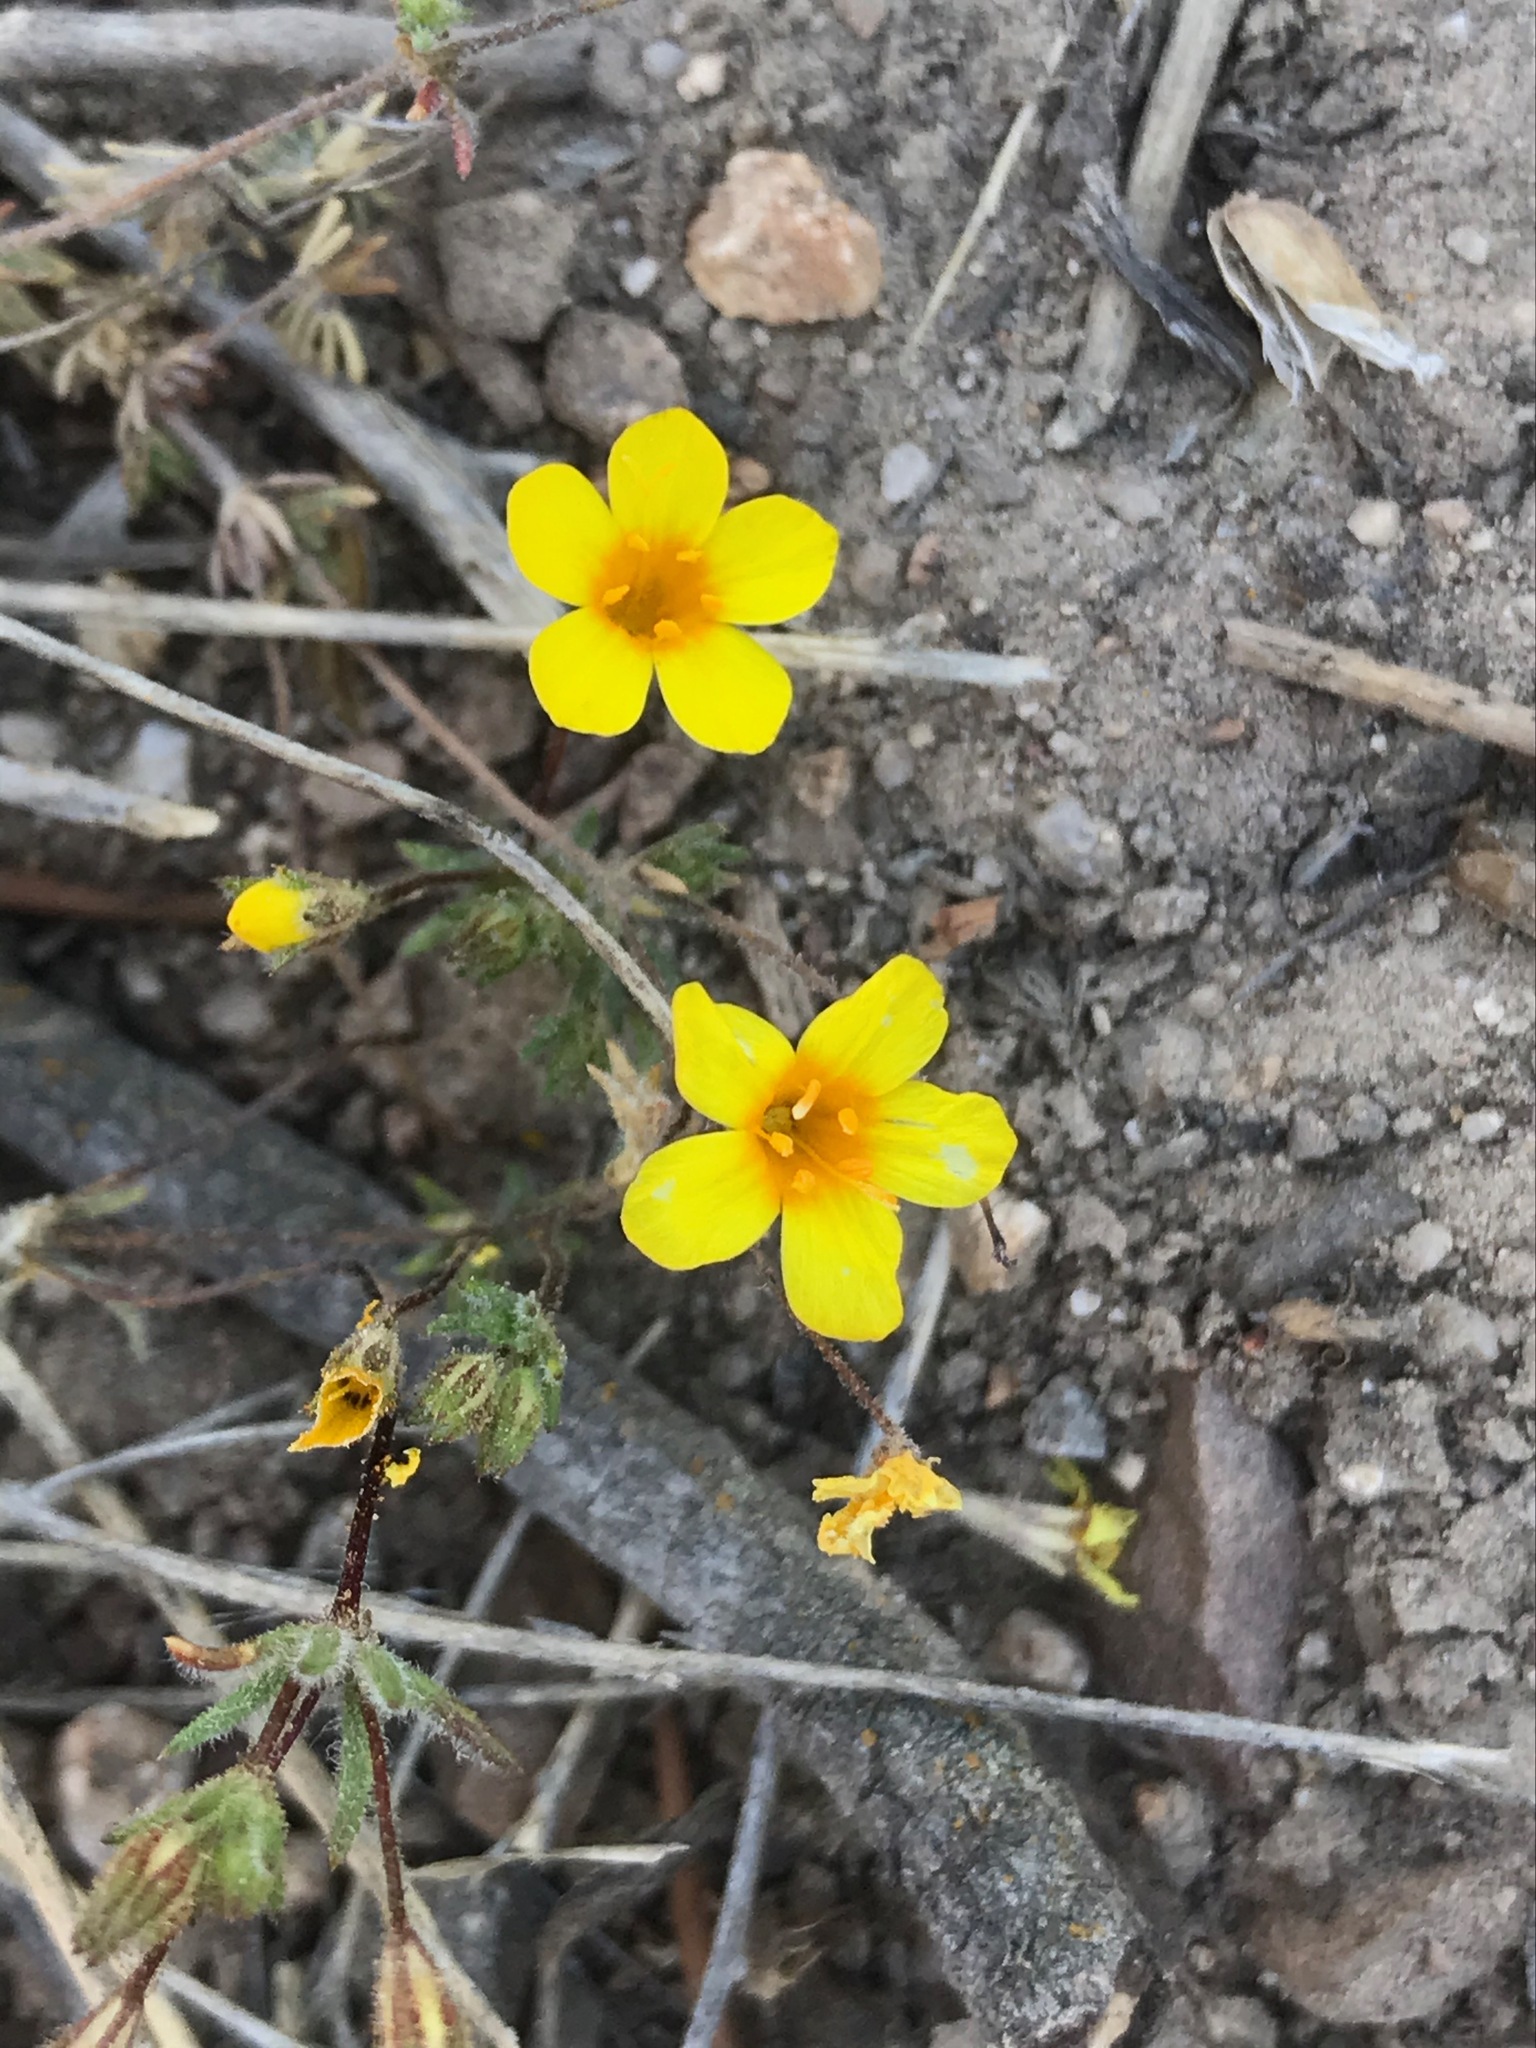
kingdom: Plantae
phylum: Tracheophyta
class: Magnoliopsida
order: Ericales
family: Polemoniaceae
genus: Leptosiphon
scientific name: Leptosiphon chrysanthus
